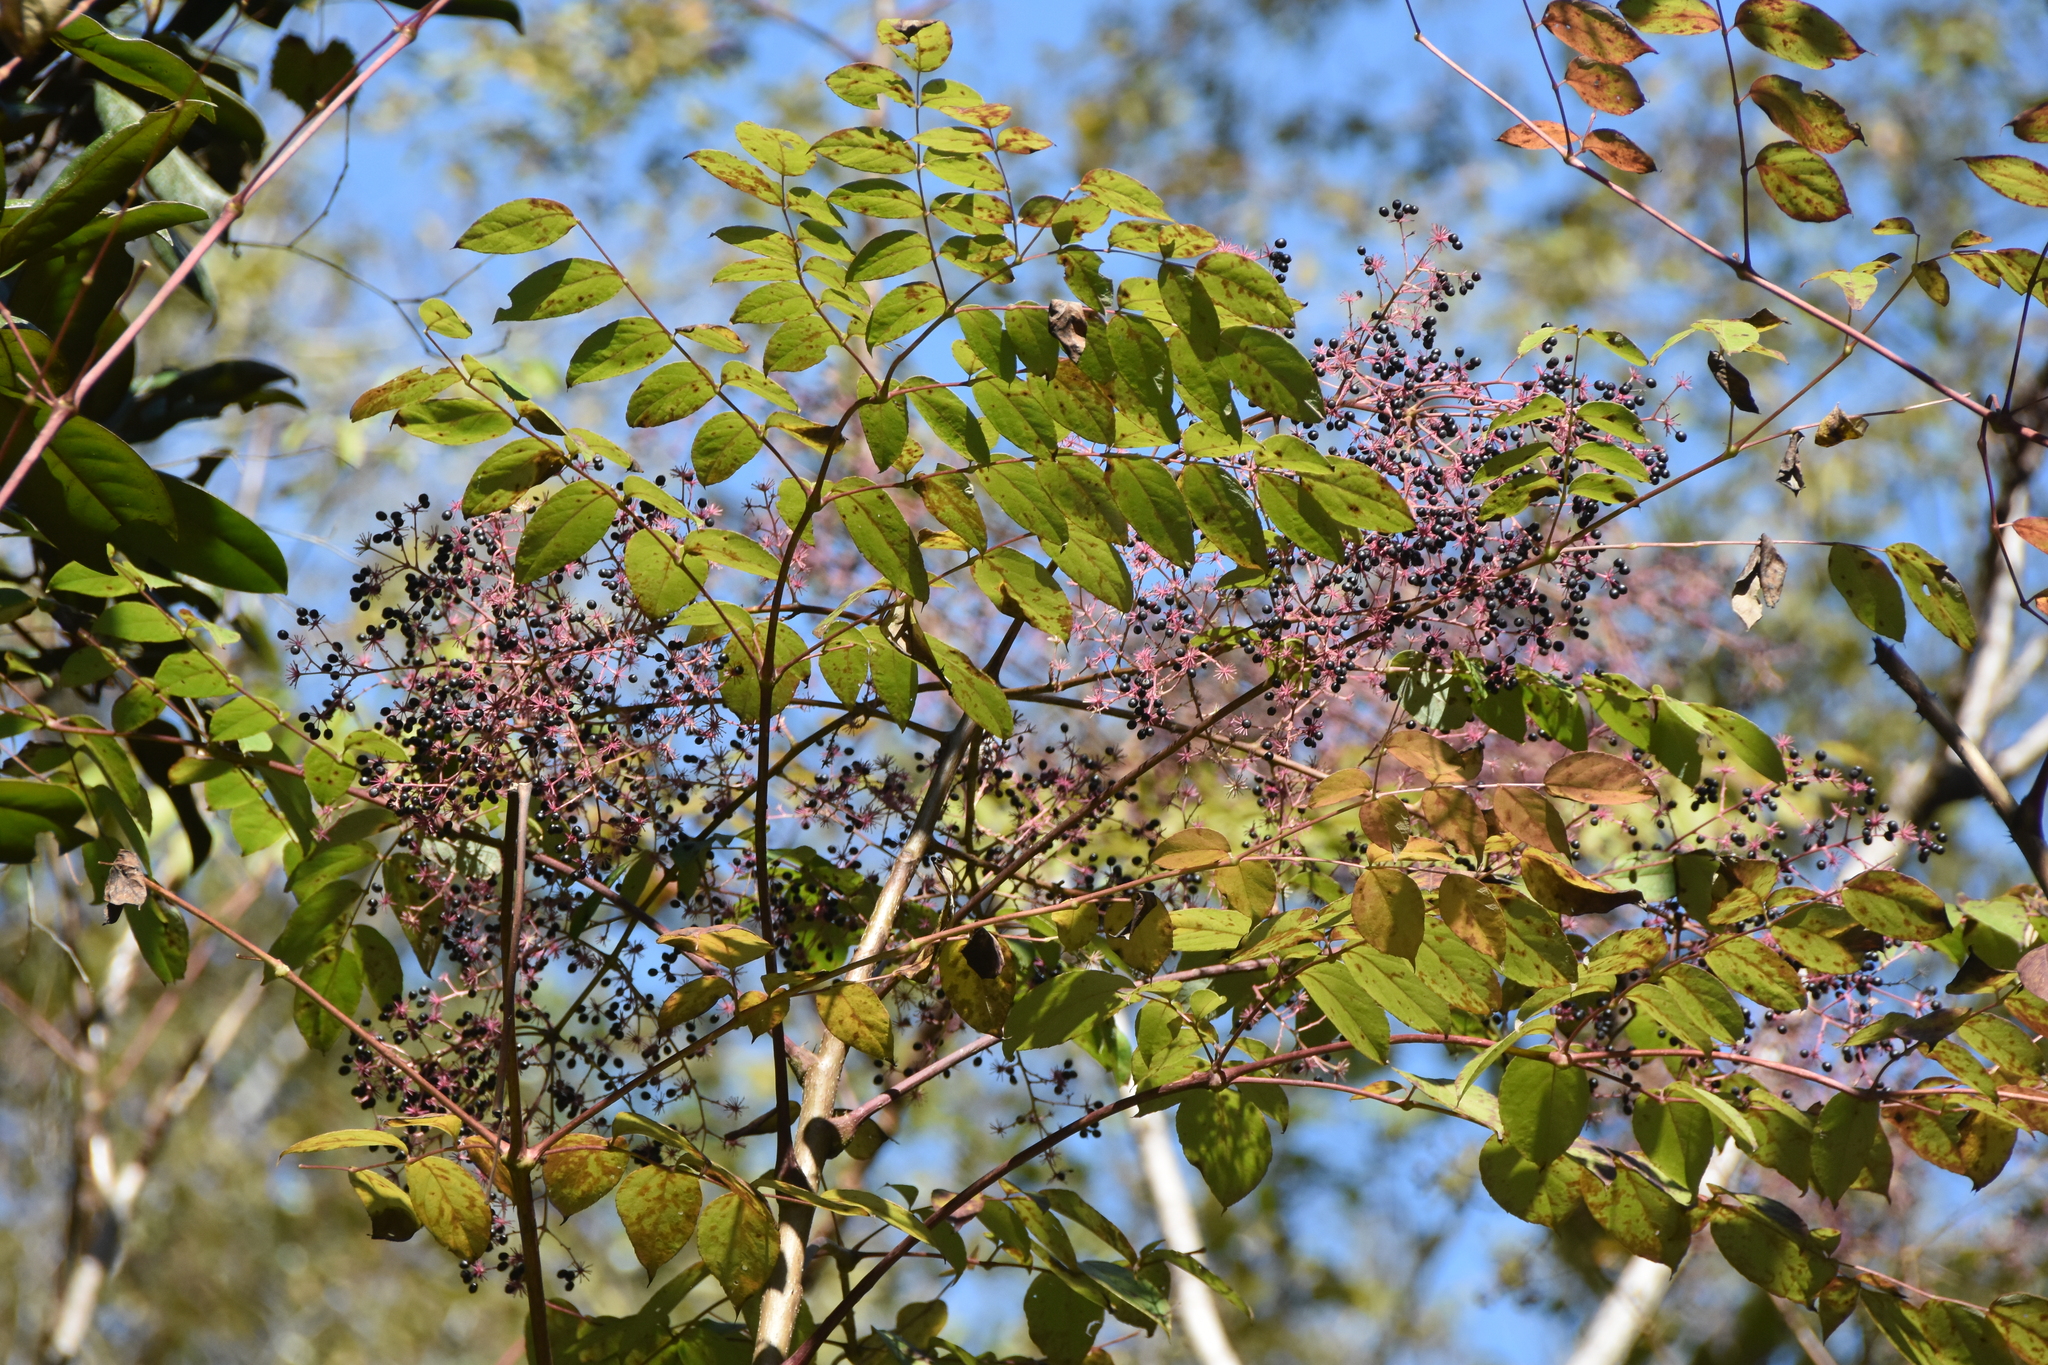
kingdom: Plantae
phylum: Tracheophyta
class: Magnoliopsida
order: Apiales
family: Araliaceae
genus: Aralia
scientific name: Aralia spinosa
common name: Hercules'-club
